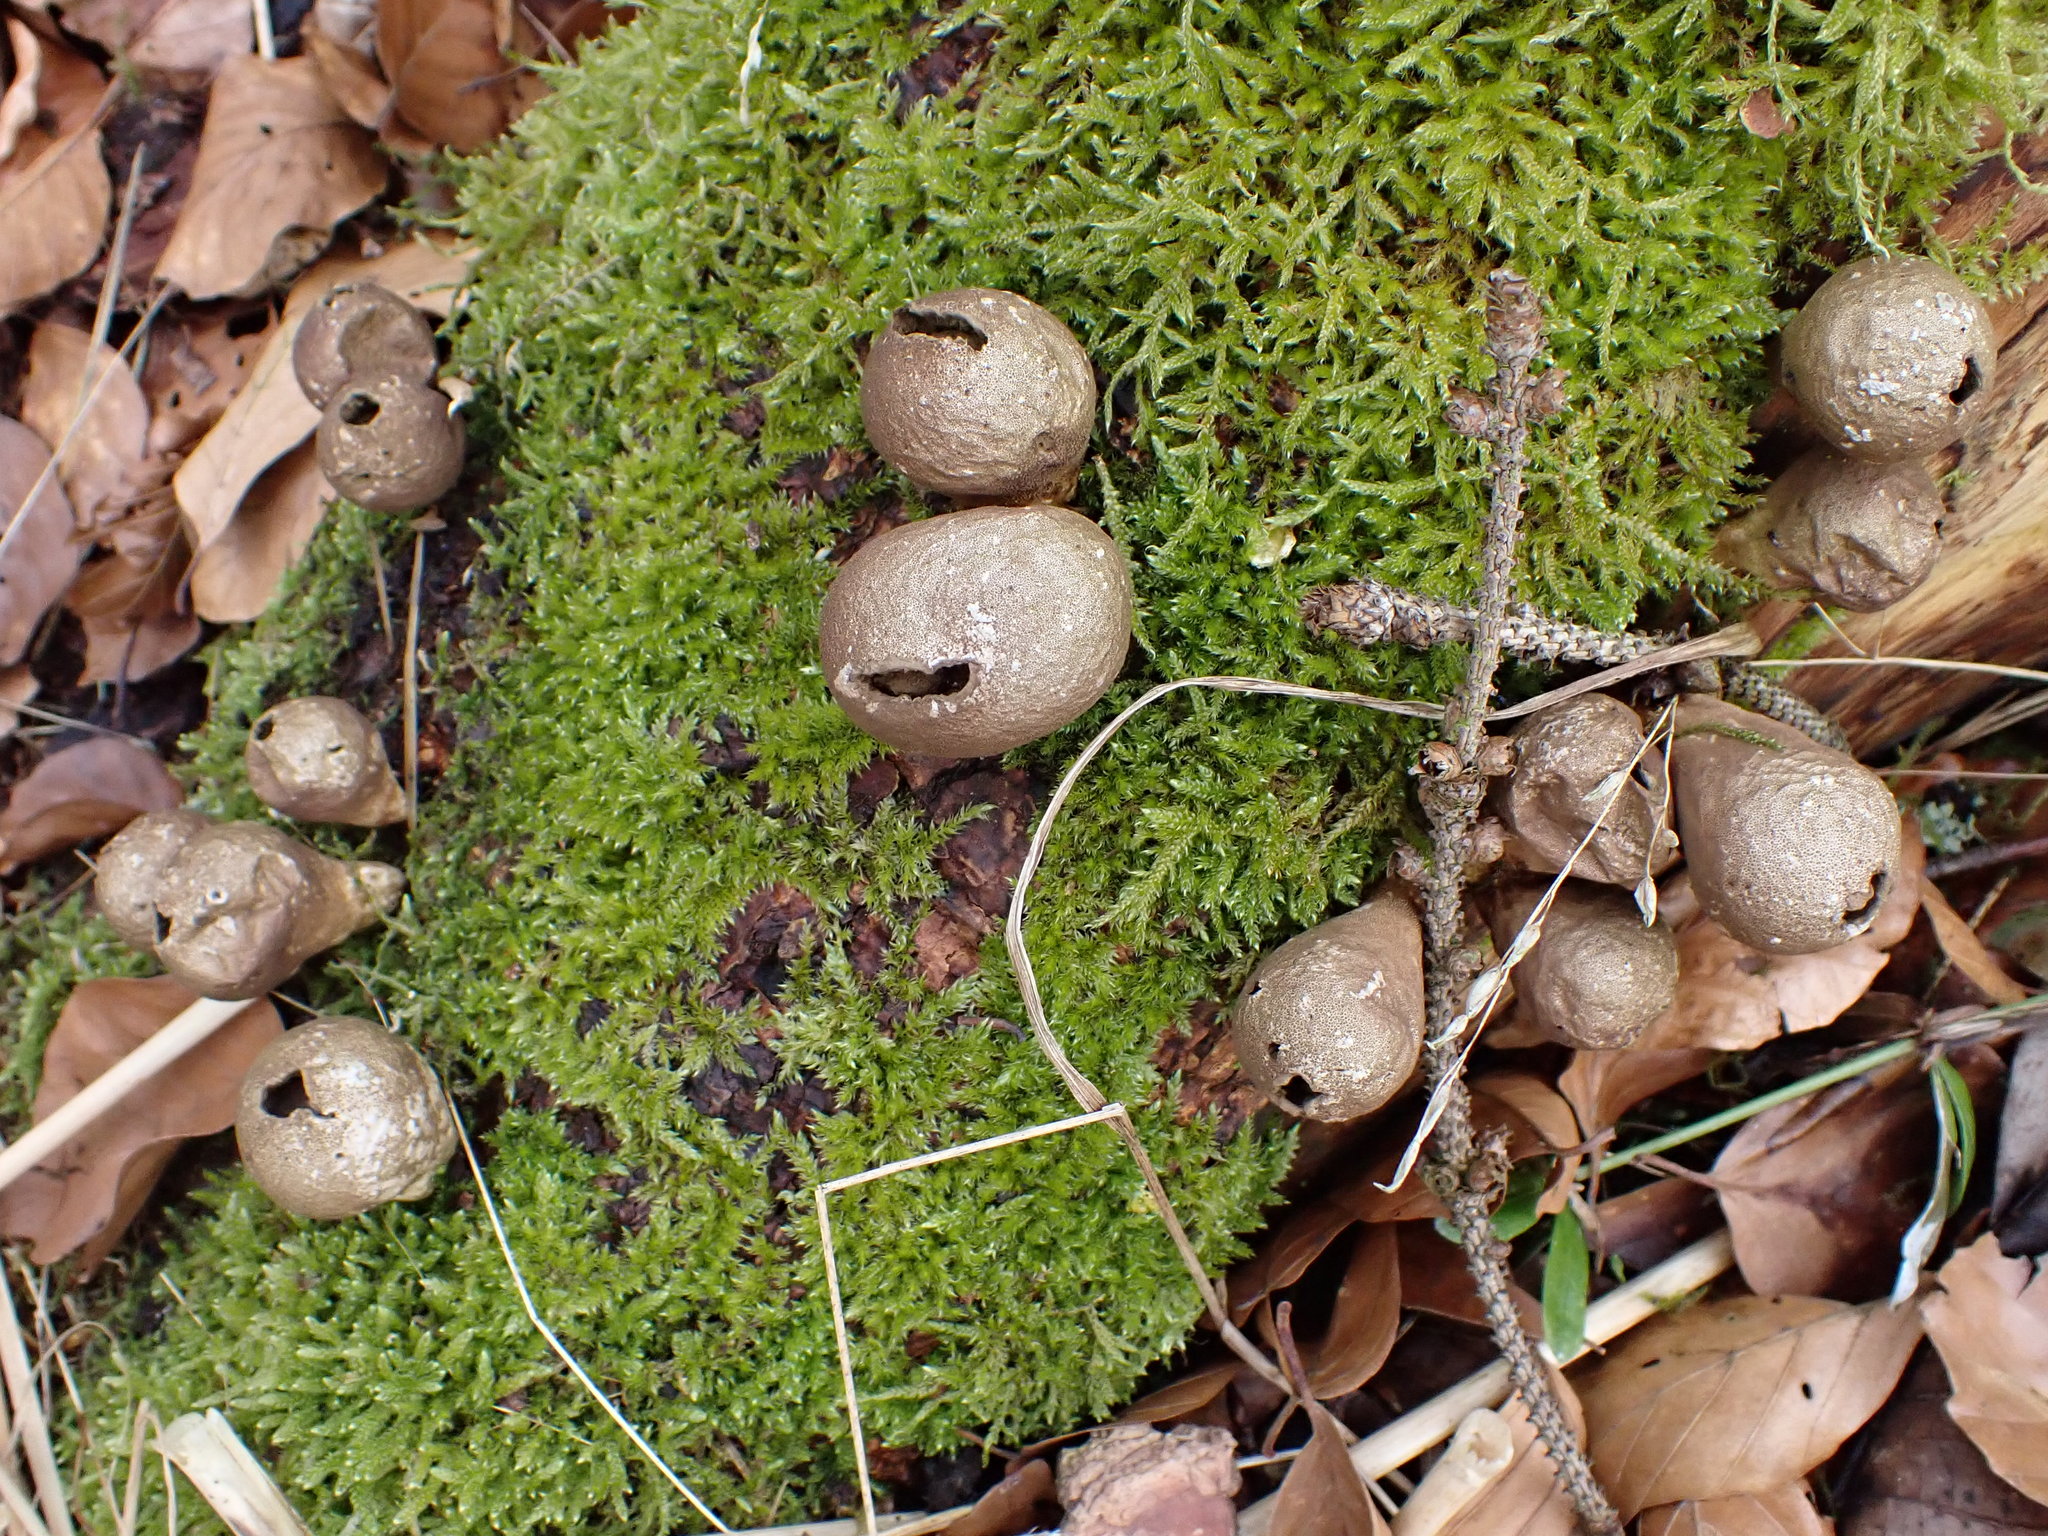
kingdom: Fungi
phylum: Basidiomycota
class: Agaricomycetes
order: Agaricales
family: Lycoperdaceae
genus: Apioperdon
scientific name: Apioperdon pyriforme
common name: Pear-shaped puffball
